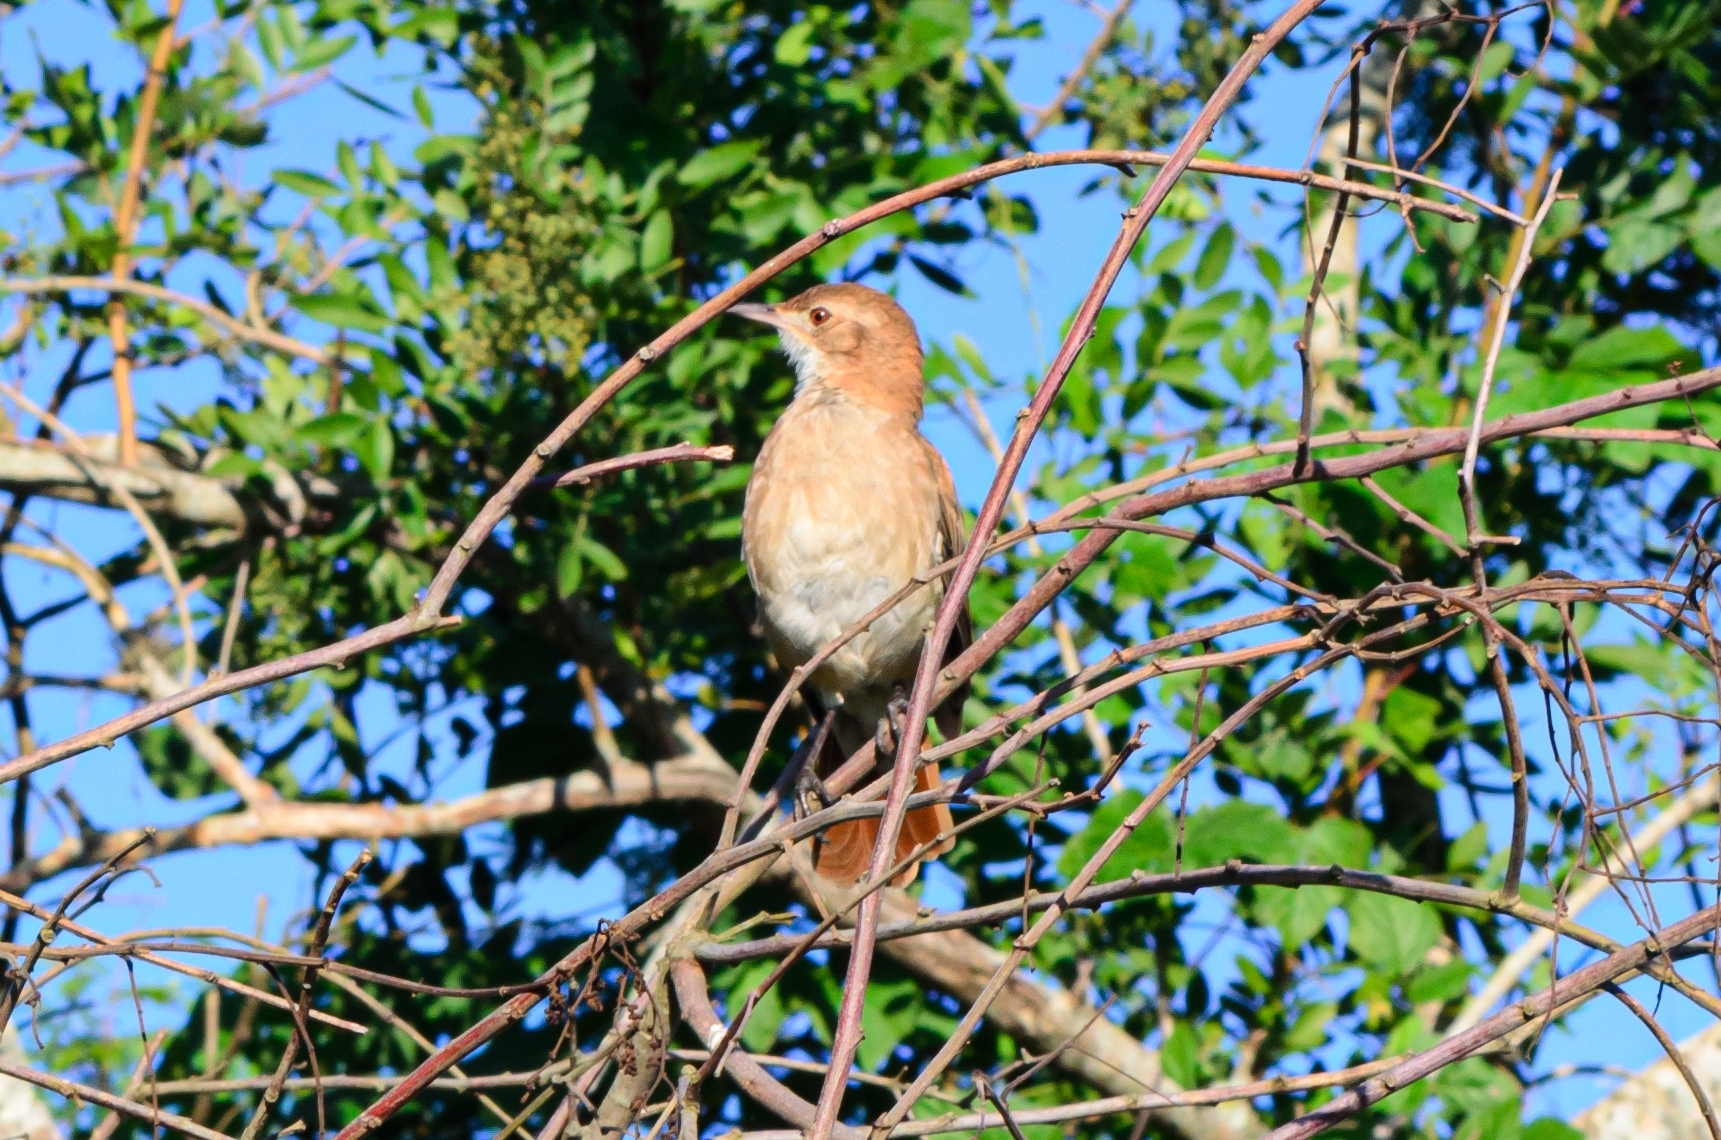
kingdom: Animalia
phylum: Chordata
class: Aves
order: Passeriformes
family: Furnariidae
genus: Furnarius
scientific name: Furnarius rufus
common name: Rufous hornero
